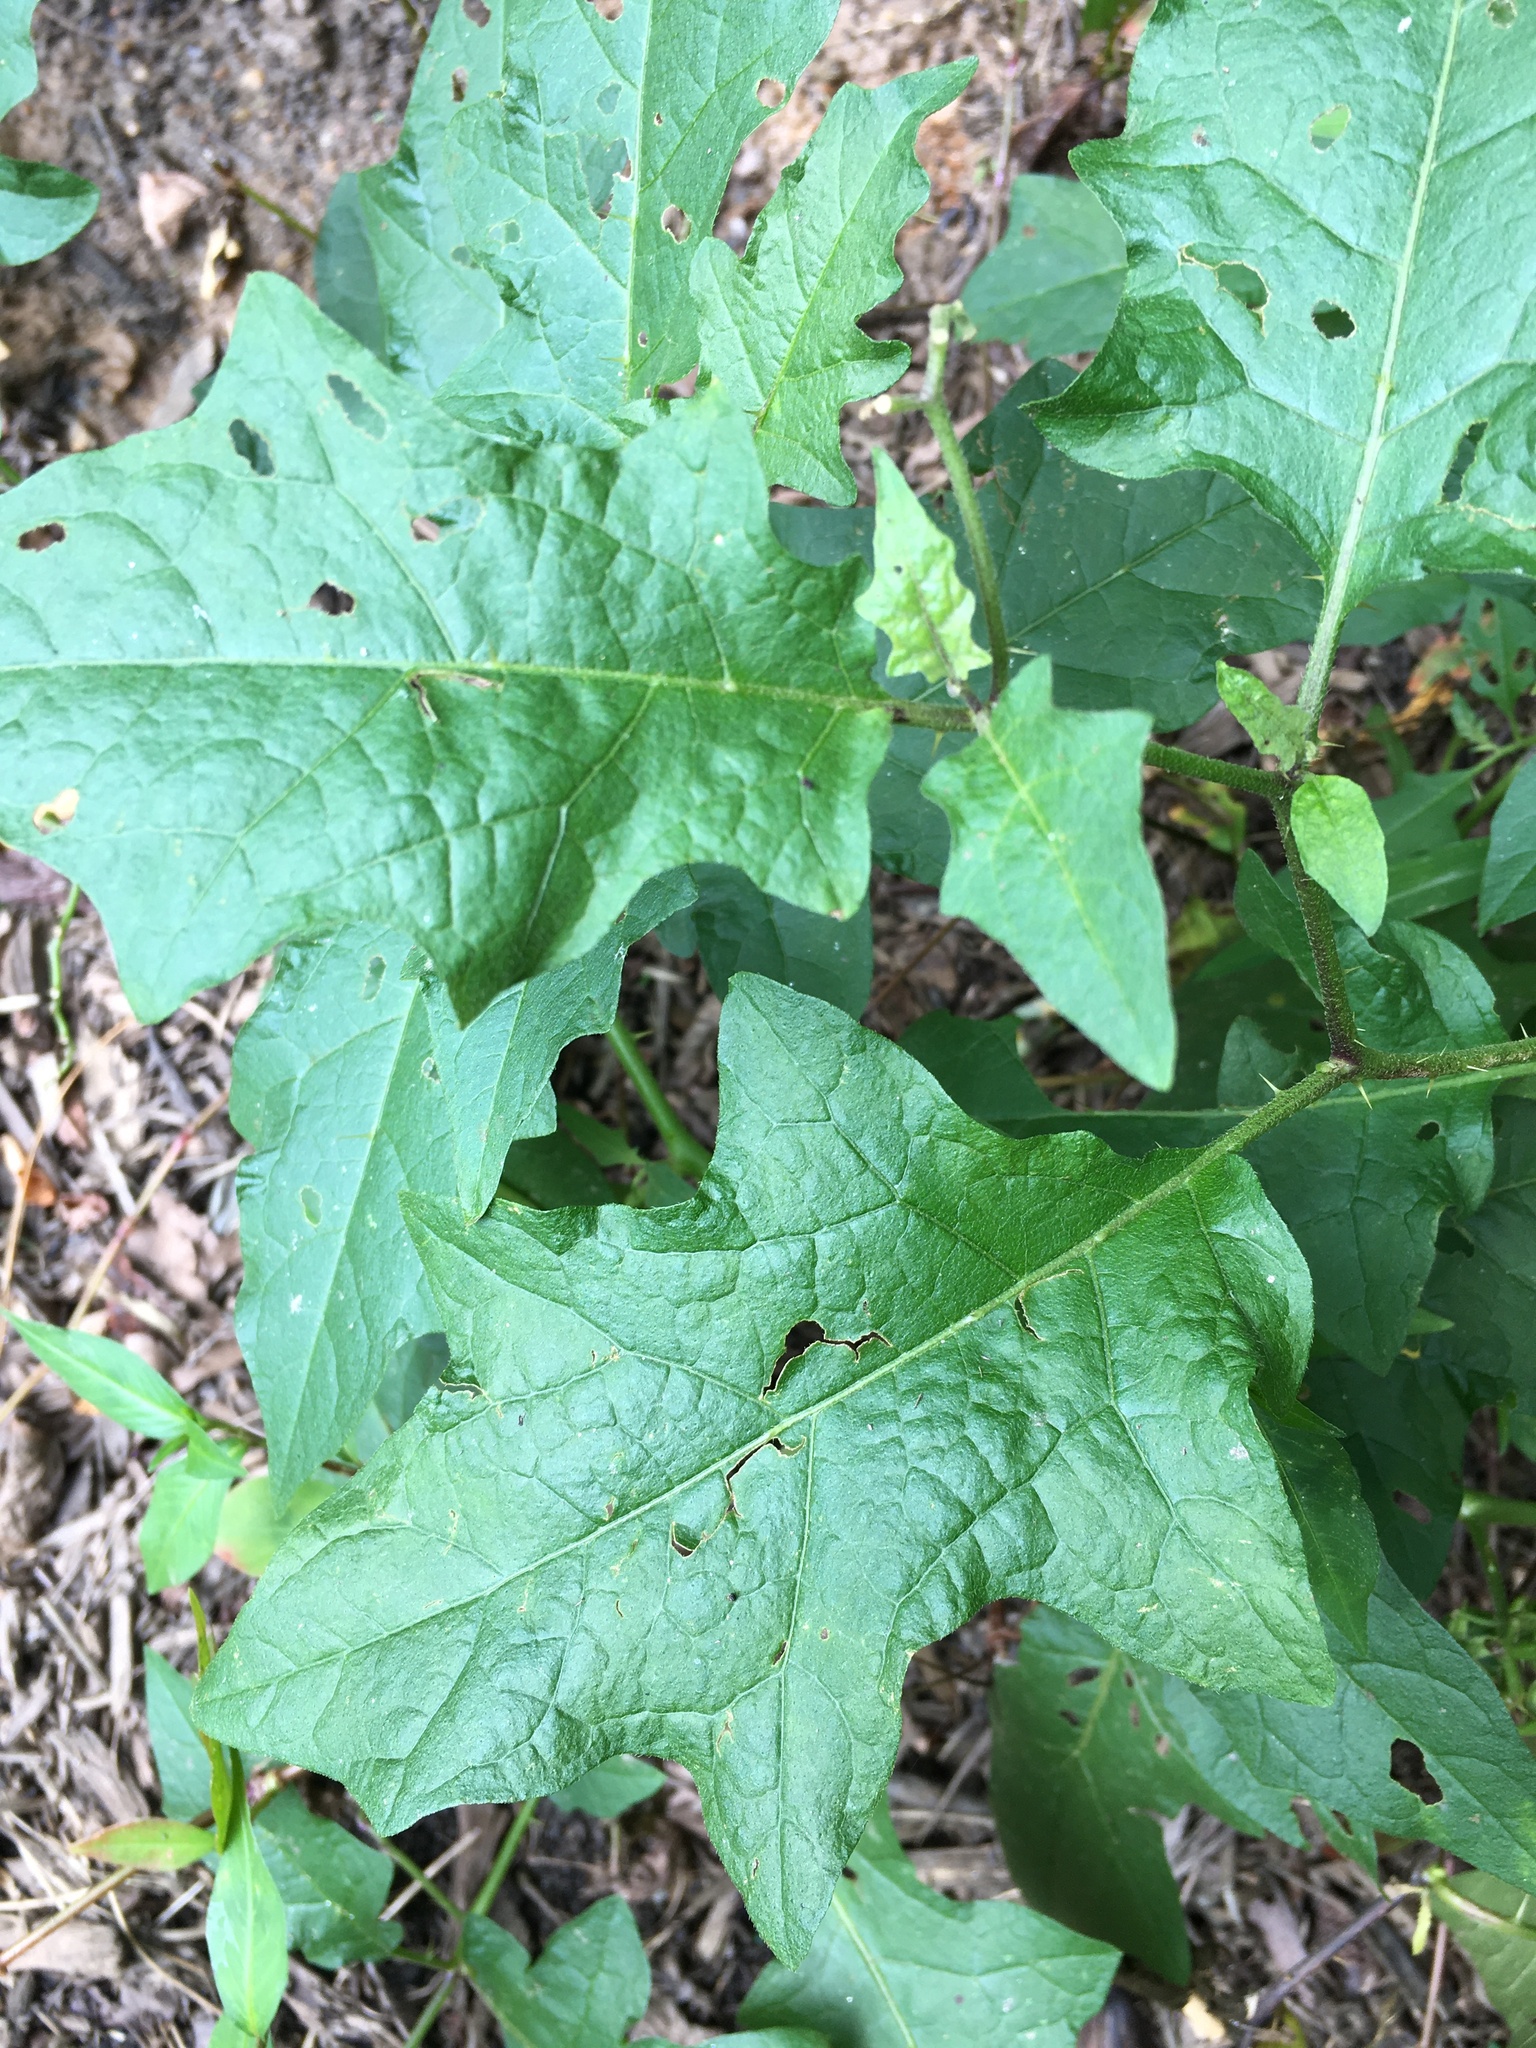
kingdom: Plantae
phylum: Tracheophyta
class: Magnoliopsida
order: Solanales
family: Solanaceae
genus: Solanum
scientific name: Solanum carolinense
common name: Horse-nettle
